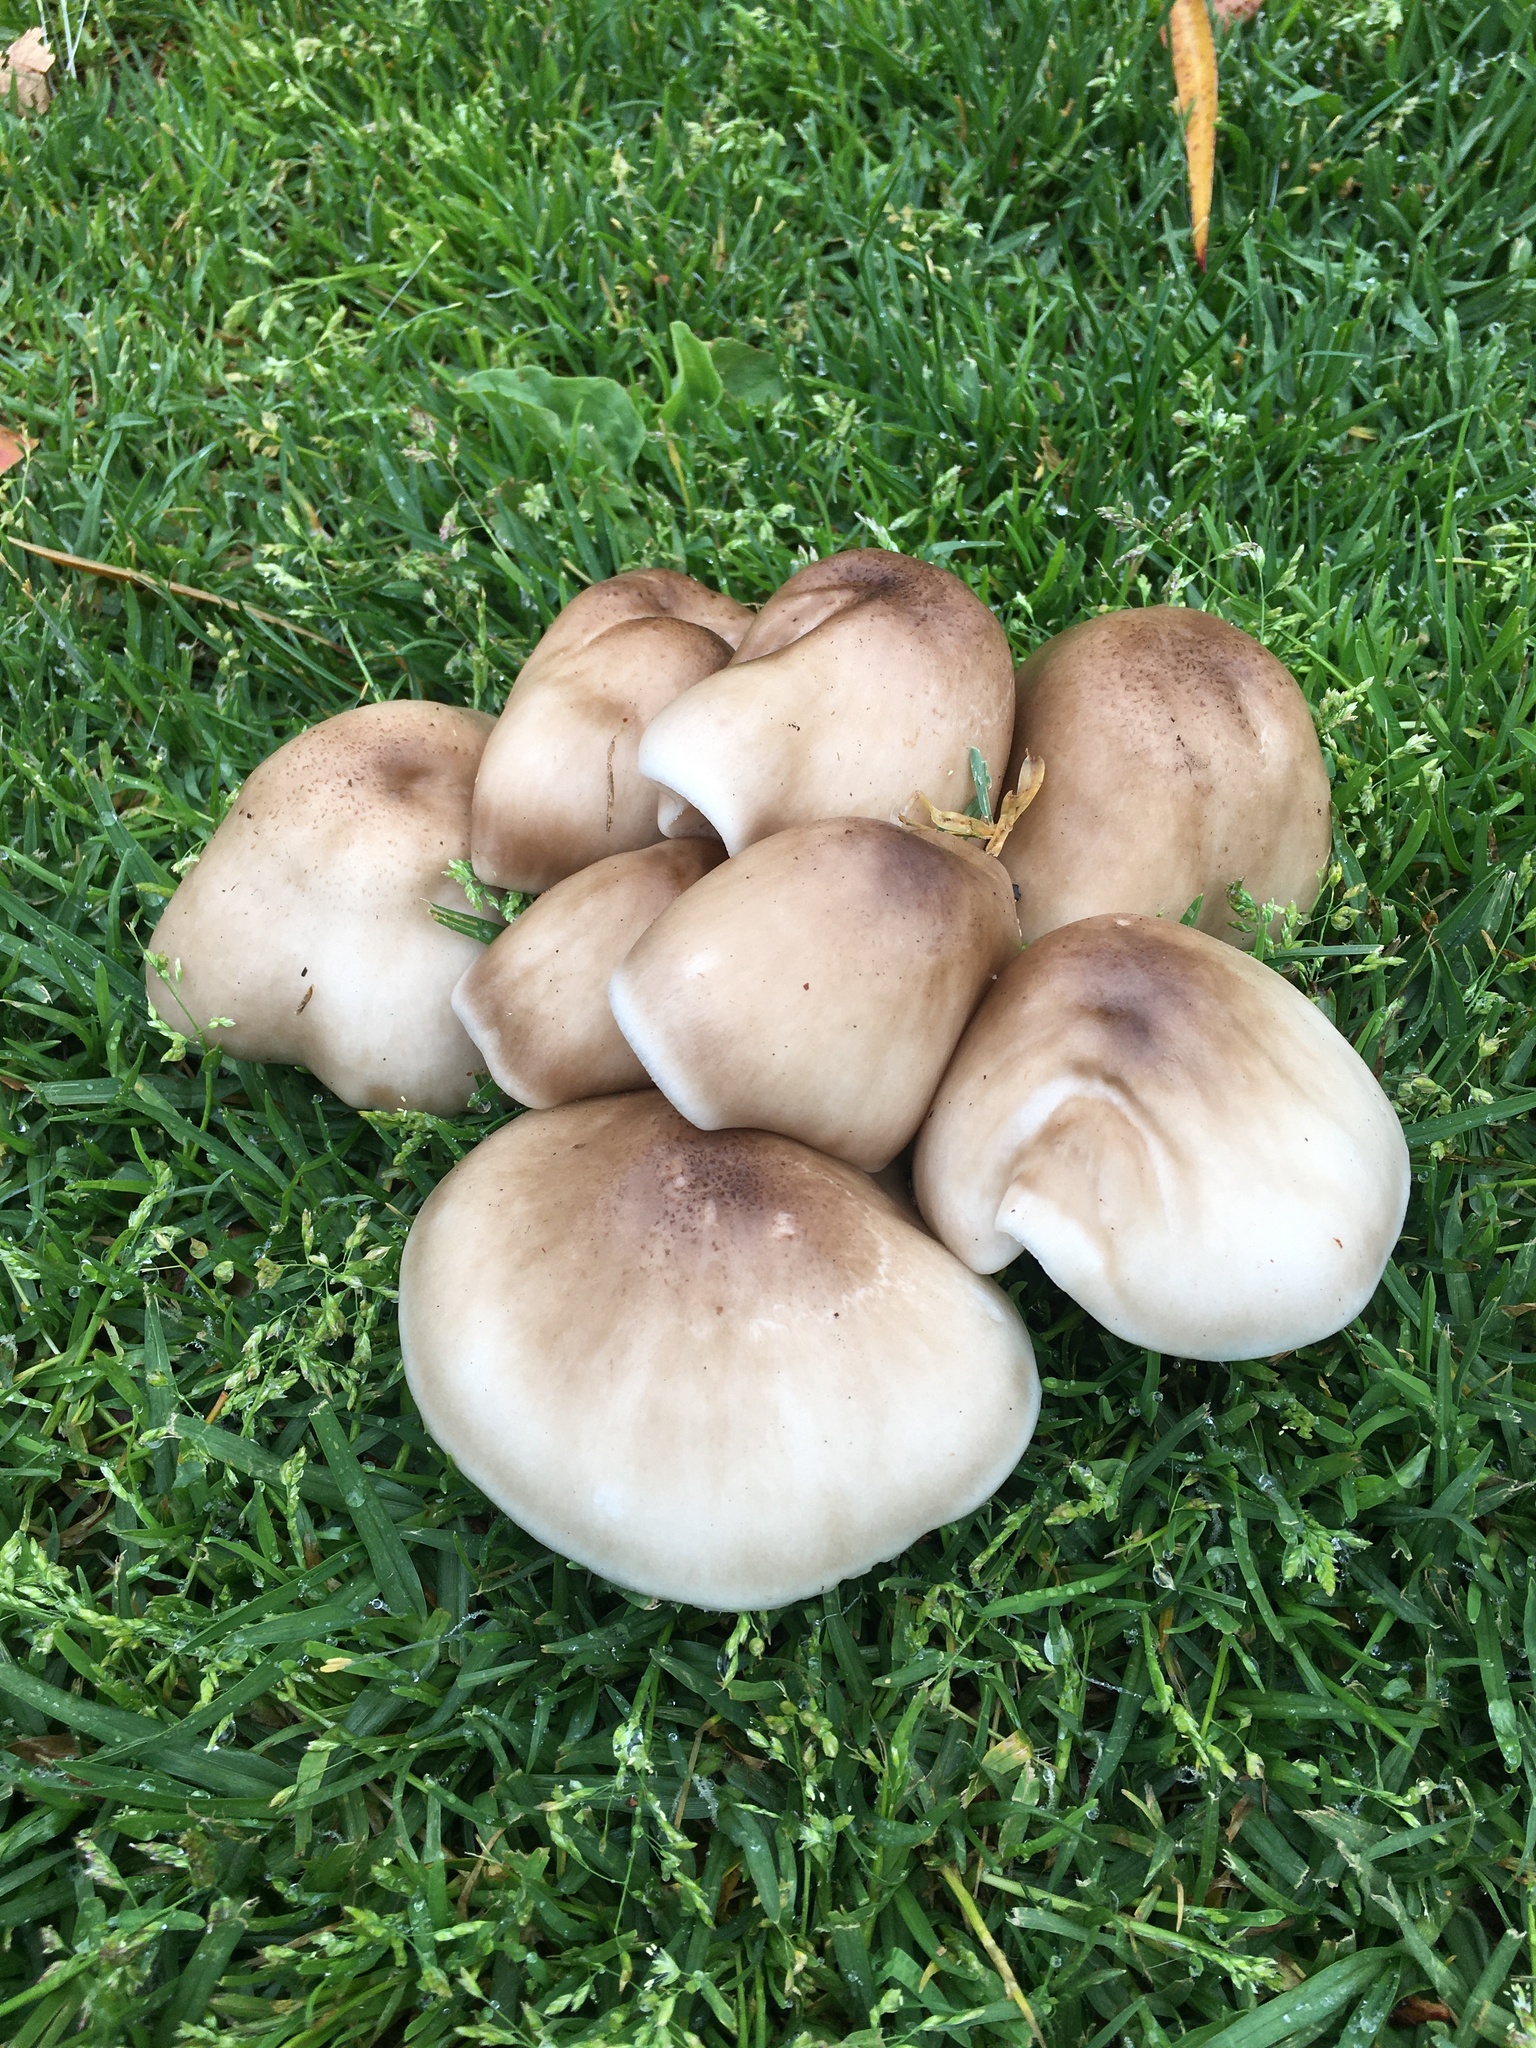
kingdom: Fungi
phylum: Basidiomycota
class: Agaricomycetes
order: Agaricales
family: Pluteaceae
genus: Pluteus
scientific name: Pluteus petasatus
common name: Scaly shield
